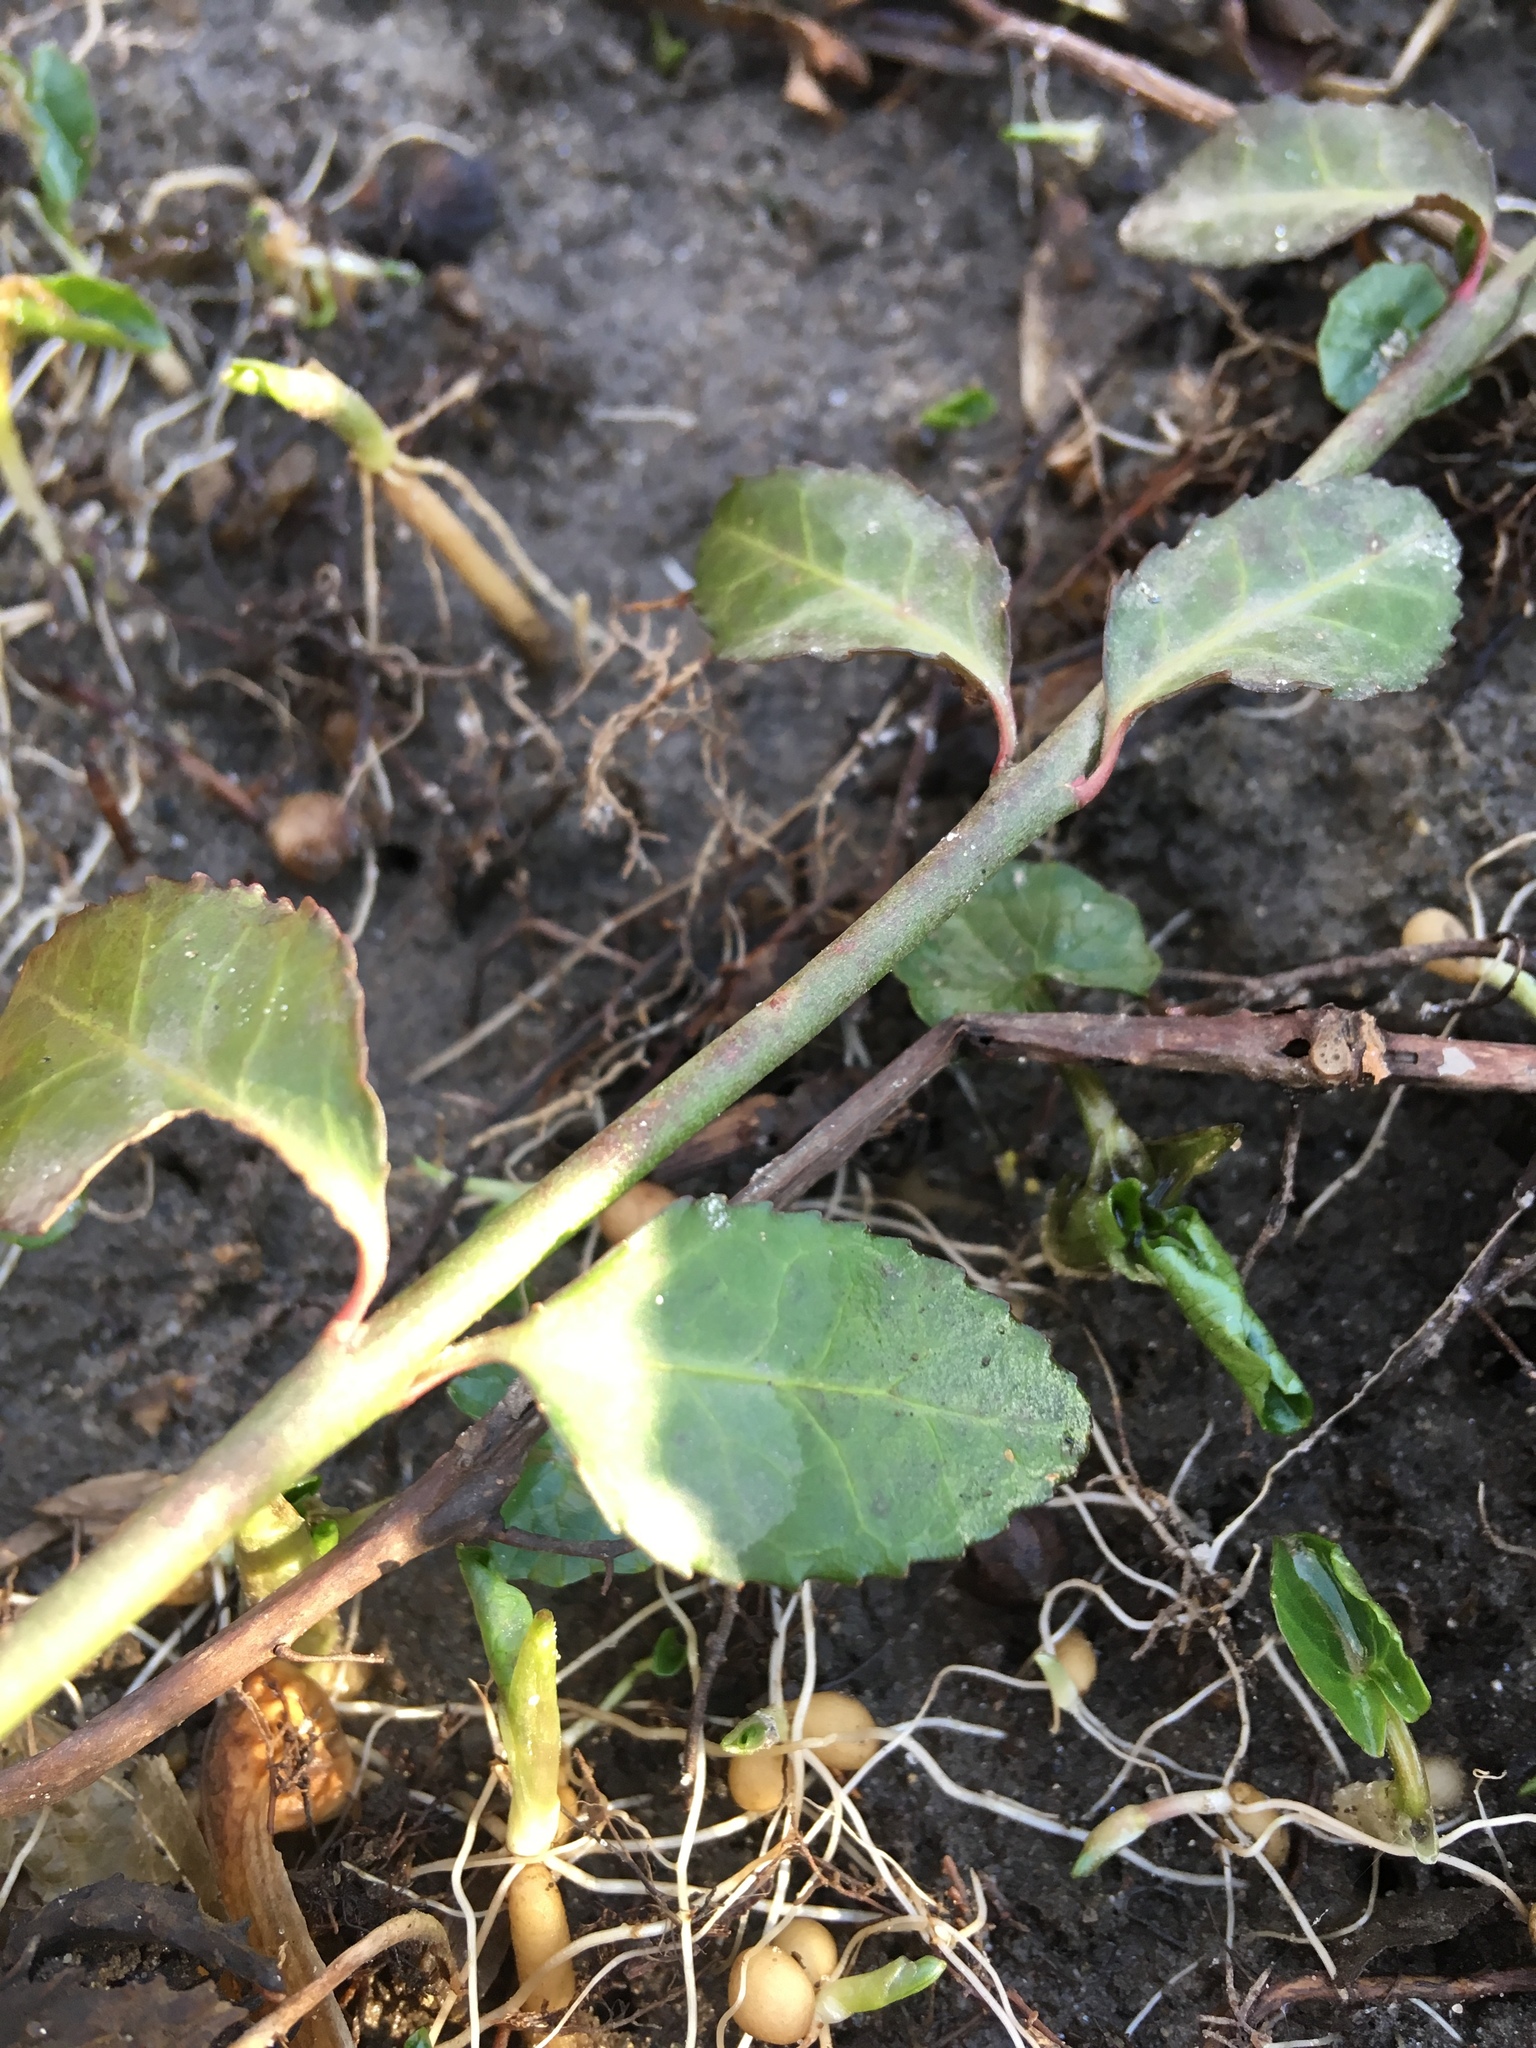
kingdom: Plantae
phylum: Tracheophyta
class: Magnoliopsida
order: Celastrales
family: Celastraceae
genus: Euonymus
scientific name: Euonymus fortunei
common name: Climbing euonymus
